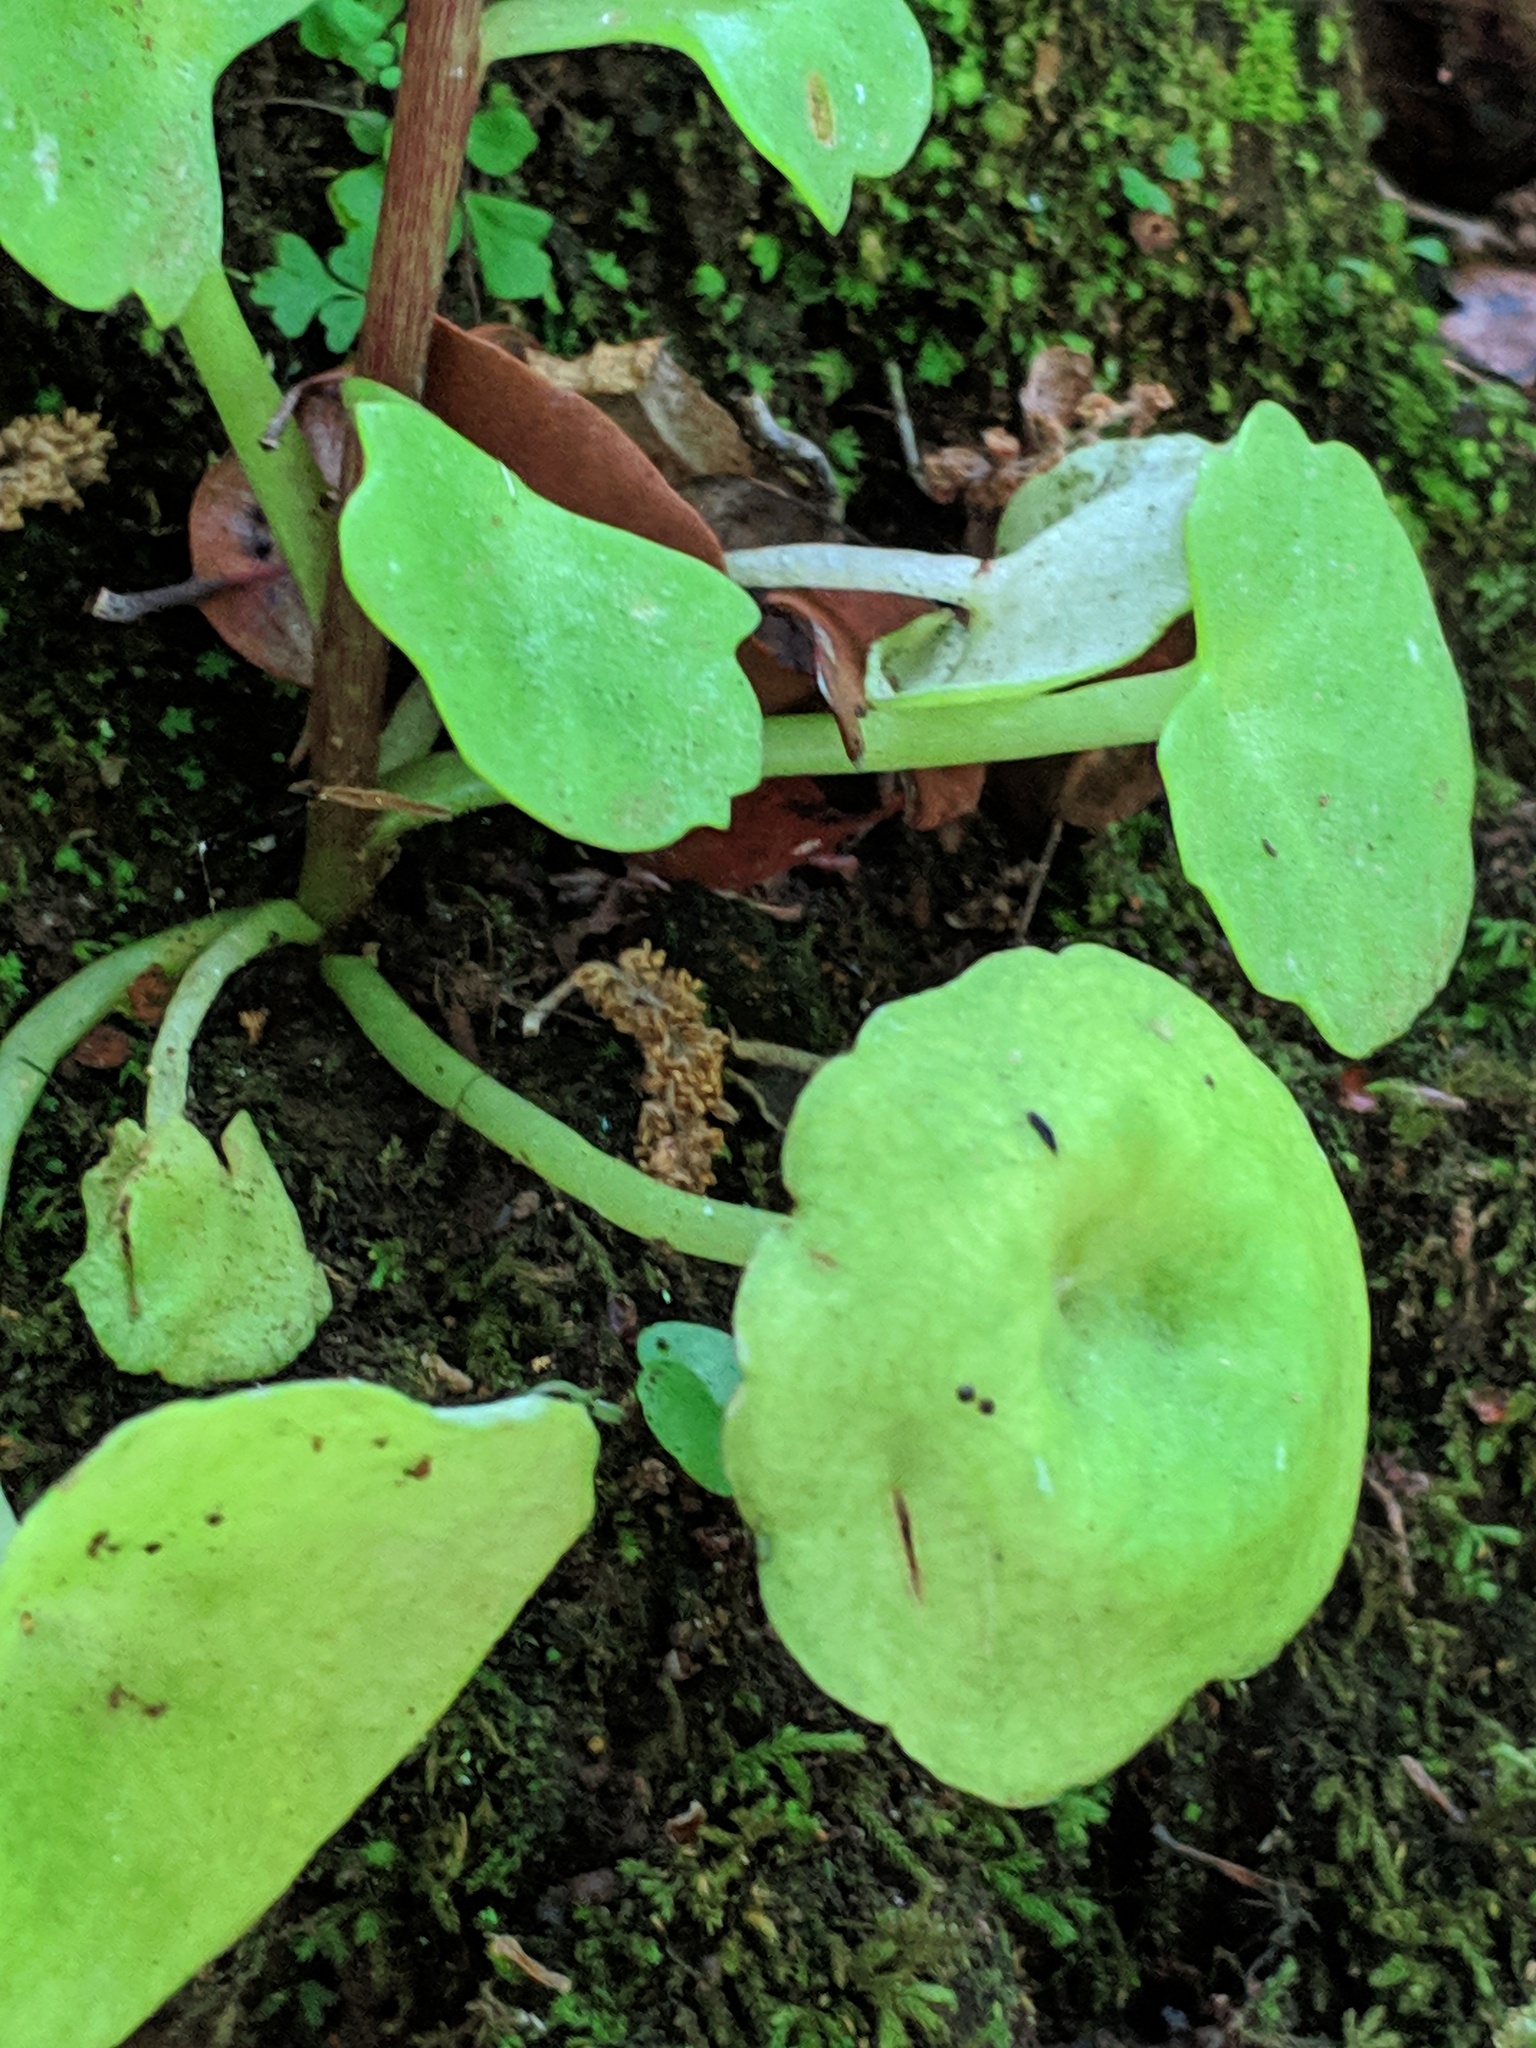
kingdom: Plantae
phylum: Tracheophyta
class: Magnoliopsida
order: Saxifragales
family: Crassulaceae
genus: Umbilicus
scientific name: Umbilicus rupestris
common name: Navelwort
